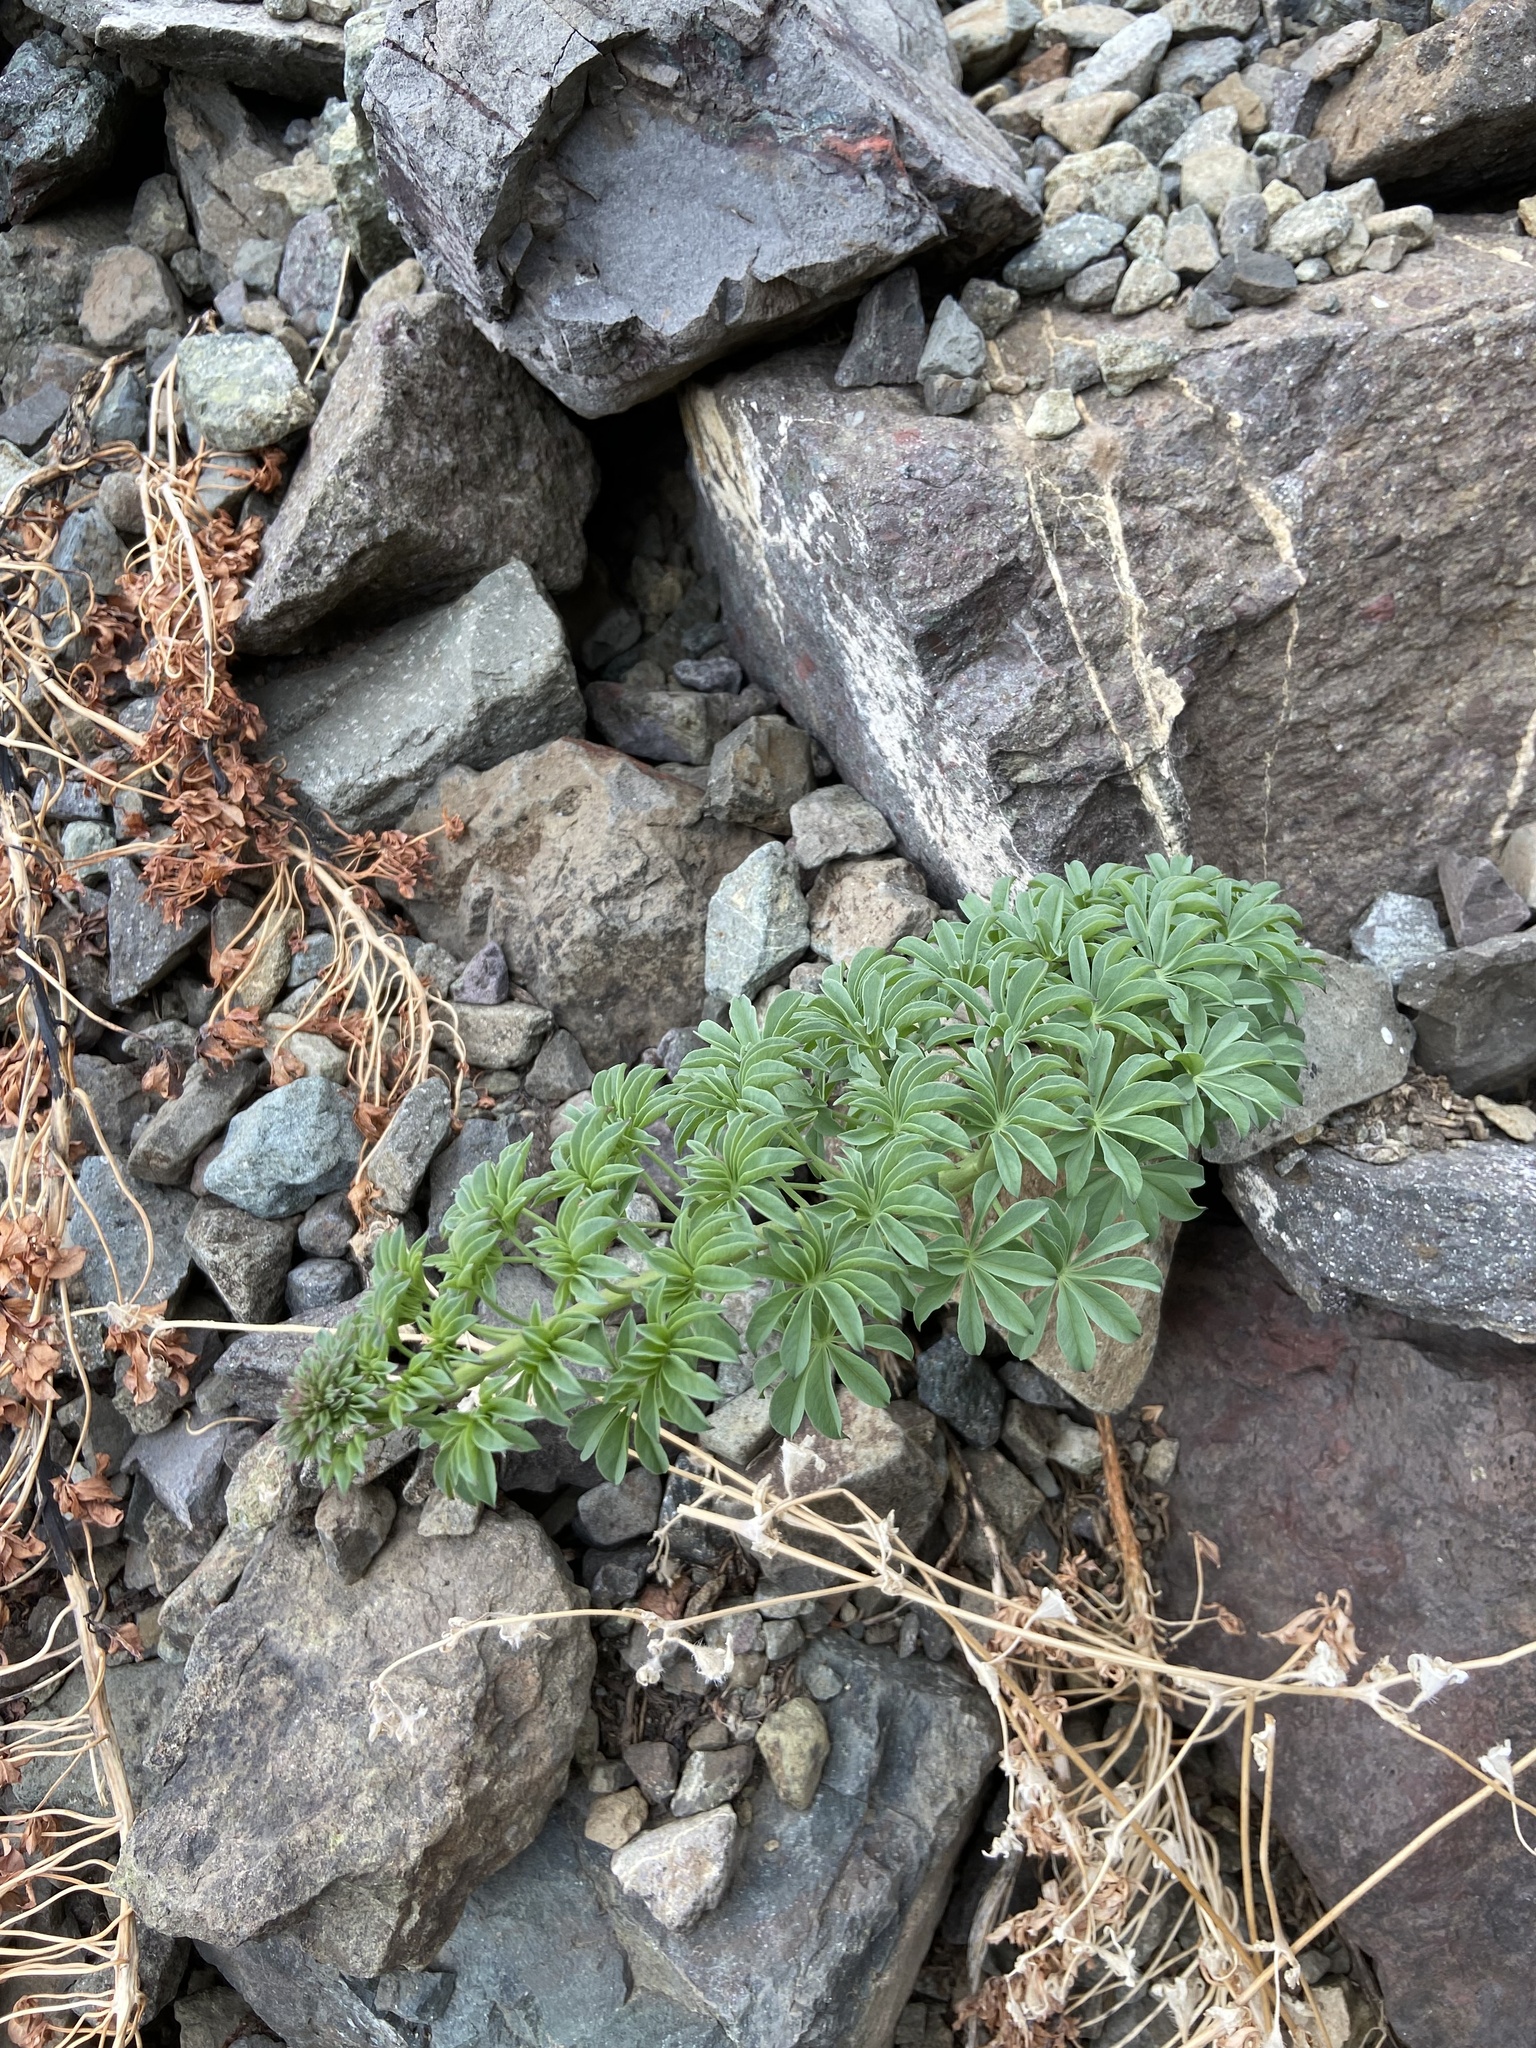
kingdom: Plantae
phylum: Tracheophyta
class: Magnoliopsida
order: Brassicales
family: Tropaeolaceae
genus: Tropaeolum
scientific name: Tropaeolum polyphyllum
